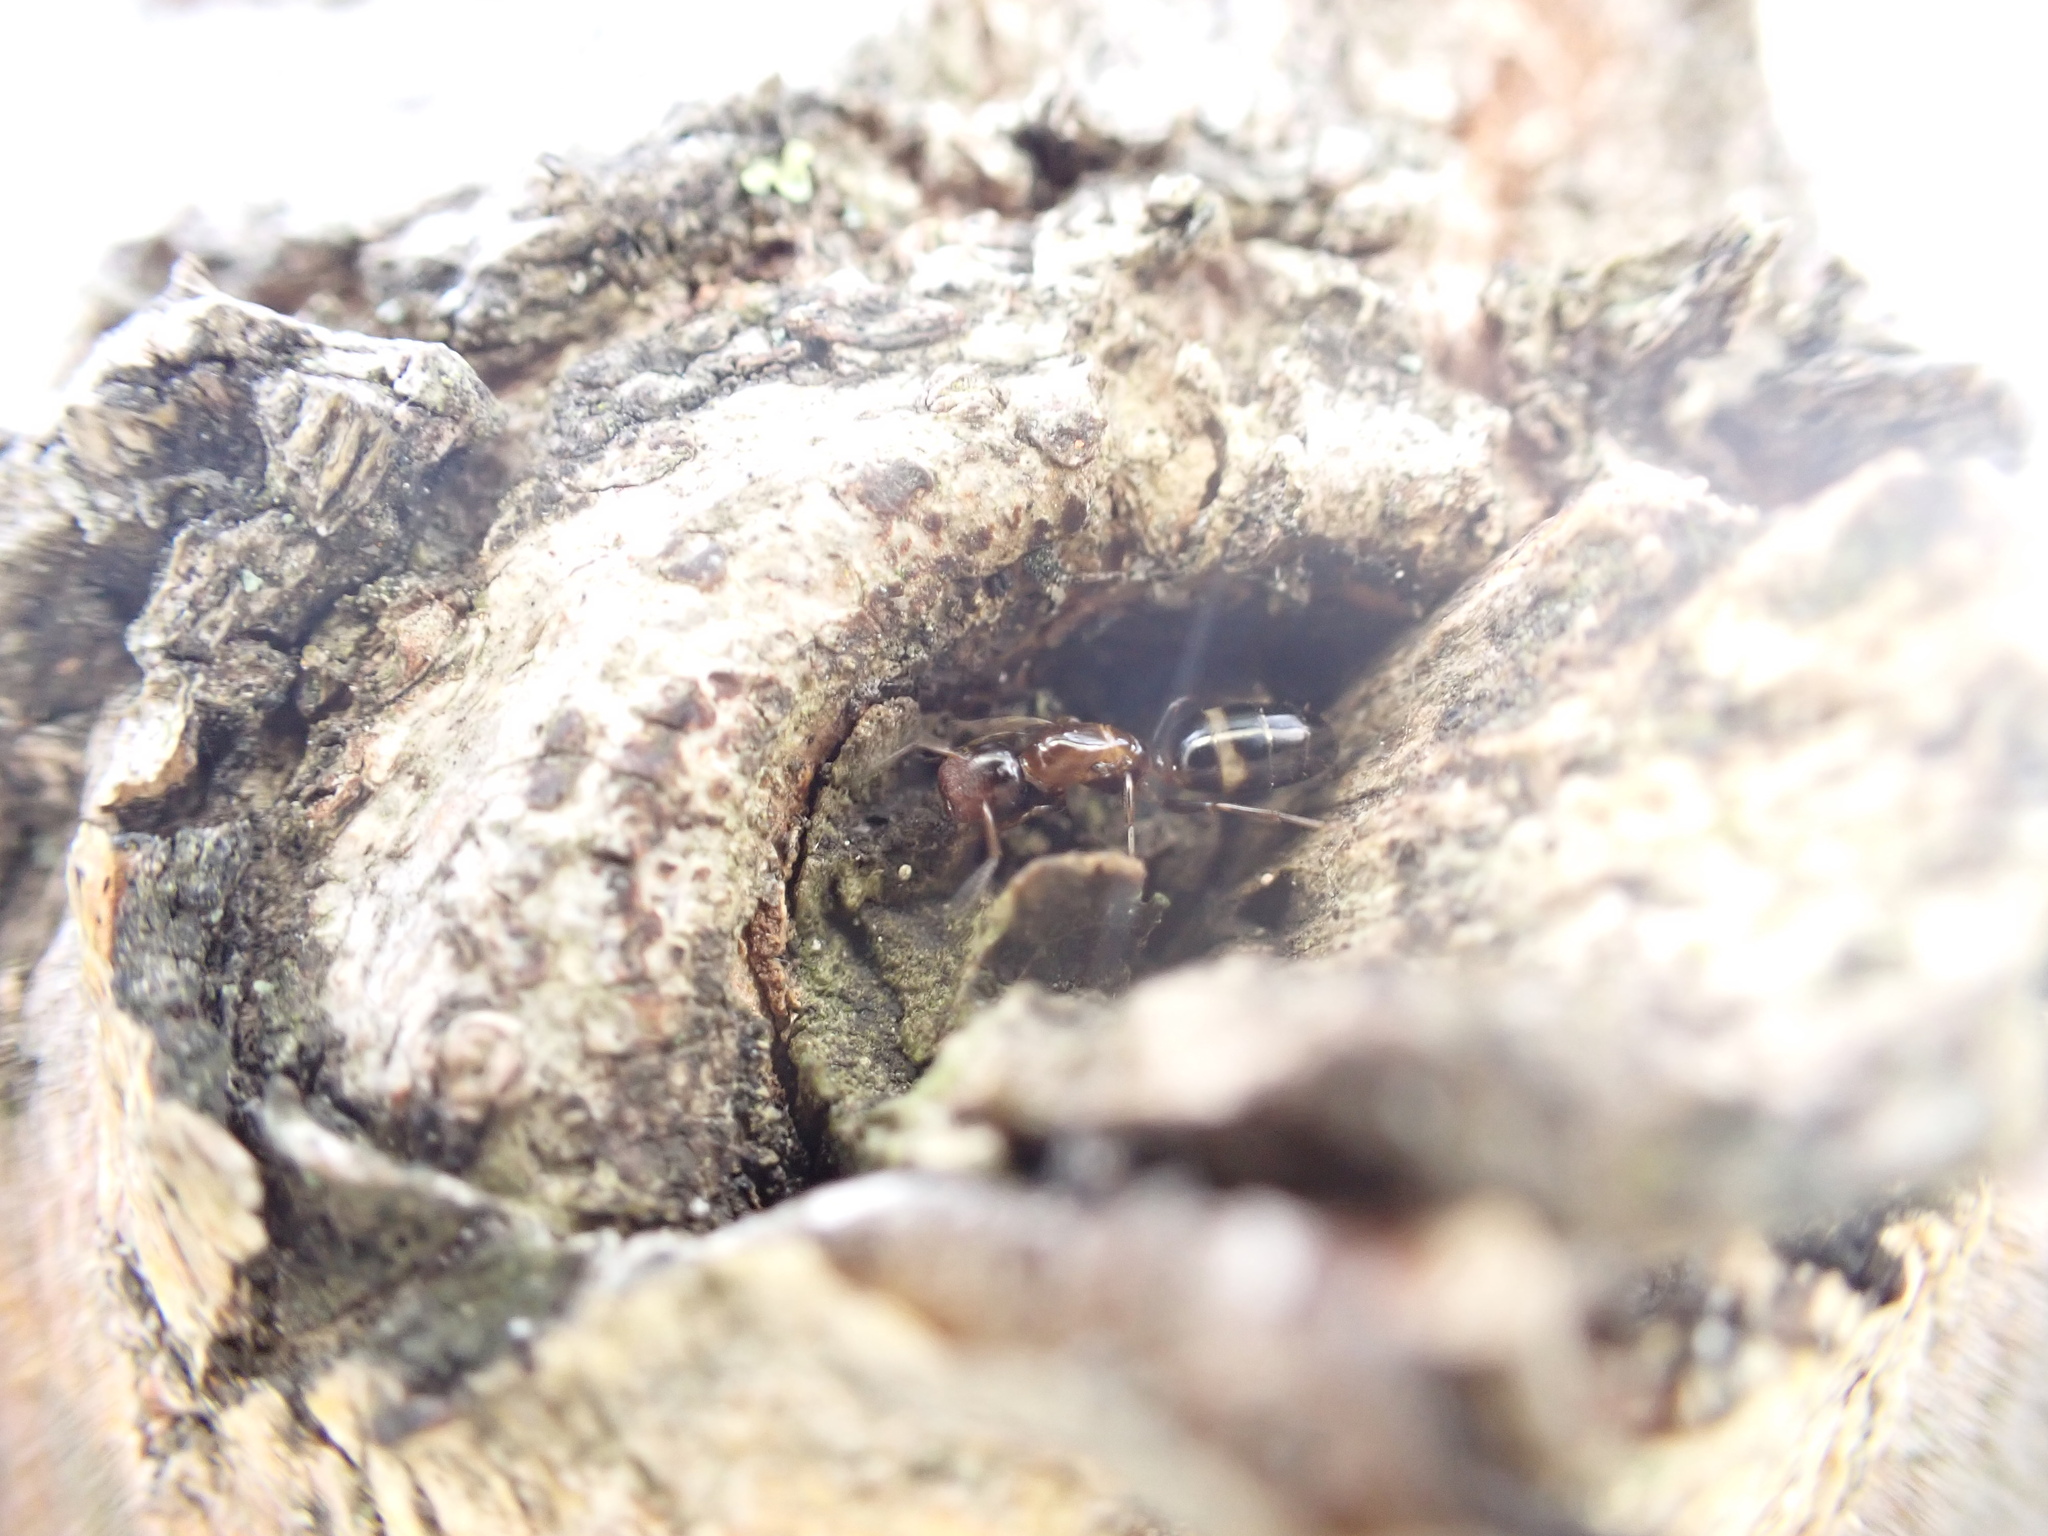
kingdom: Animalia
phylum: Arthropoda
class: Insecta
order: Hymenoptera
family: Formicidae
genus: Camponotus
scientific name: Camponotus truncatus
